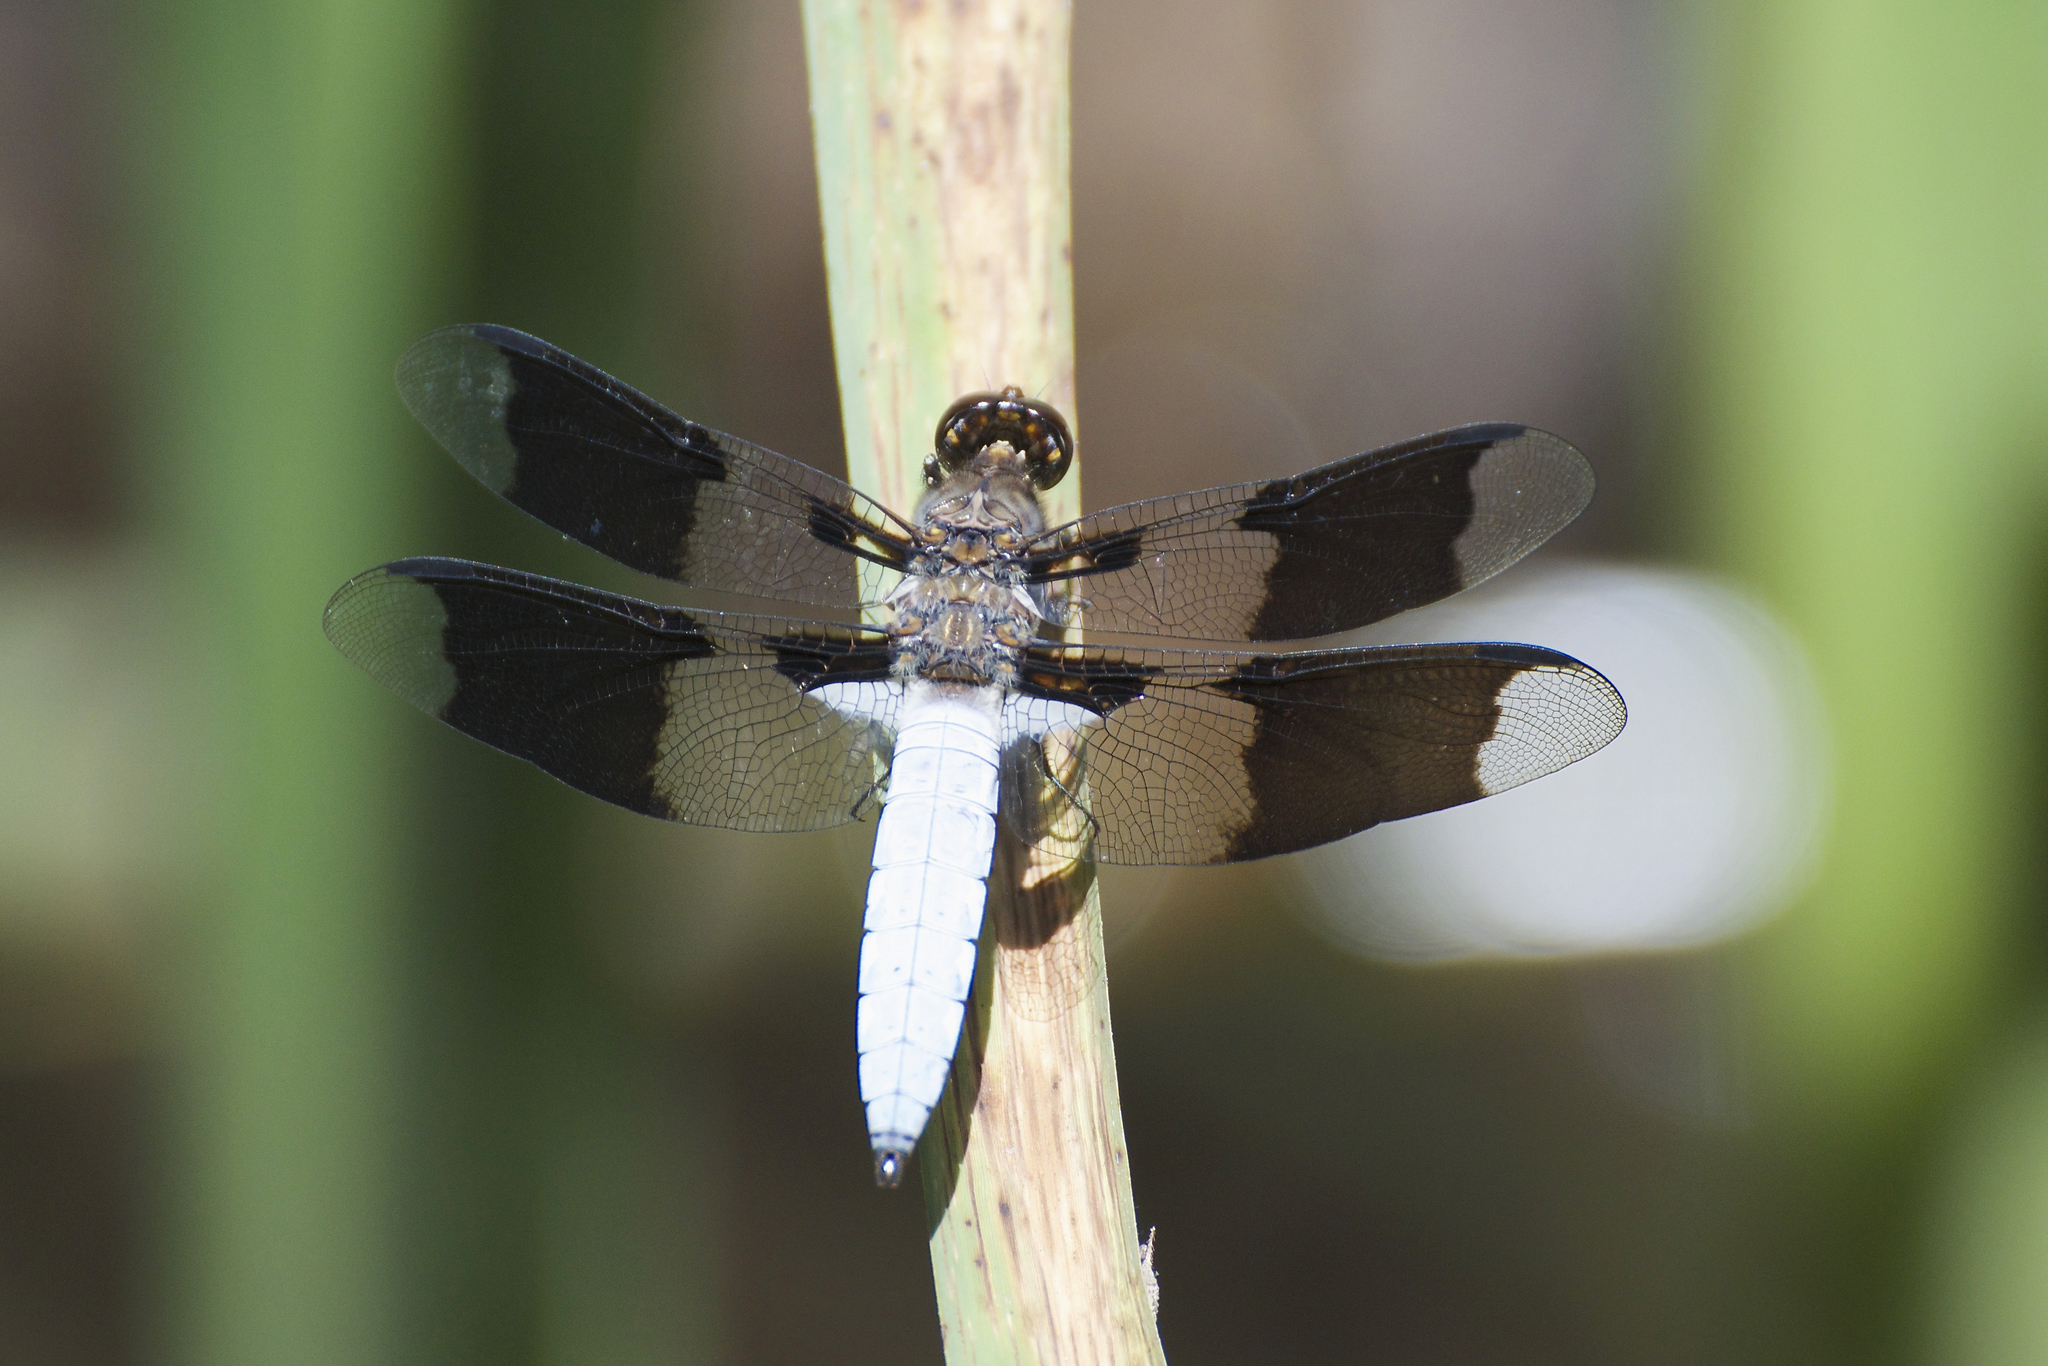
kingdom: Animalia
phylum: Arthropoda
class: Insecta
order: Odonata
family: Libellulidae
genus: Plathemis
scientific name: Plathemis lydia
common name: Common whitetail
